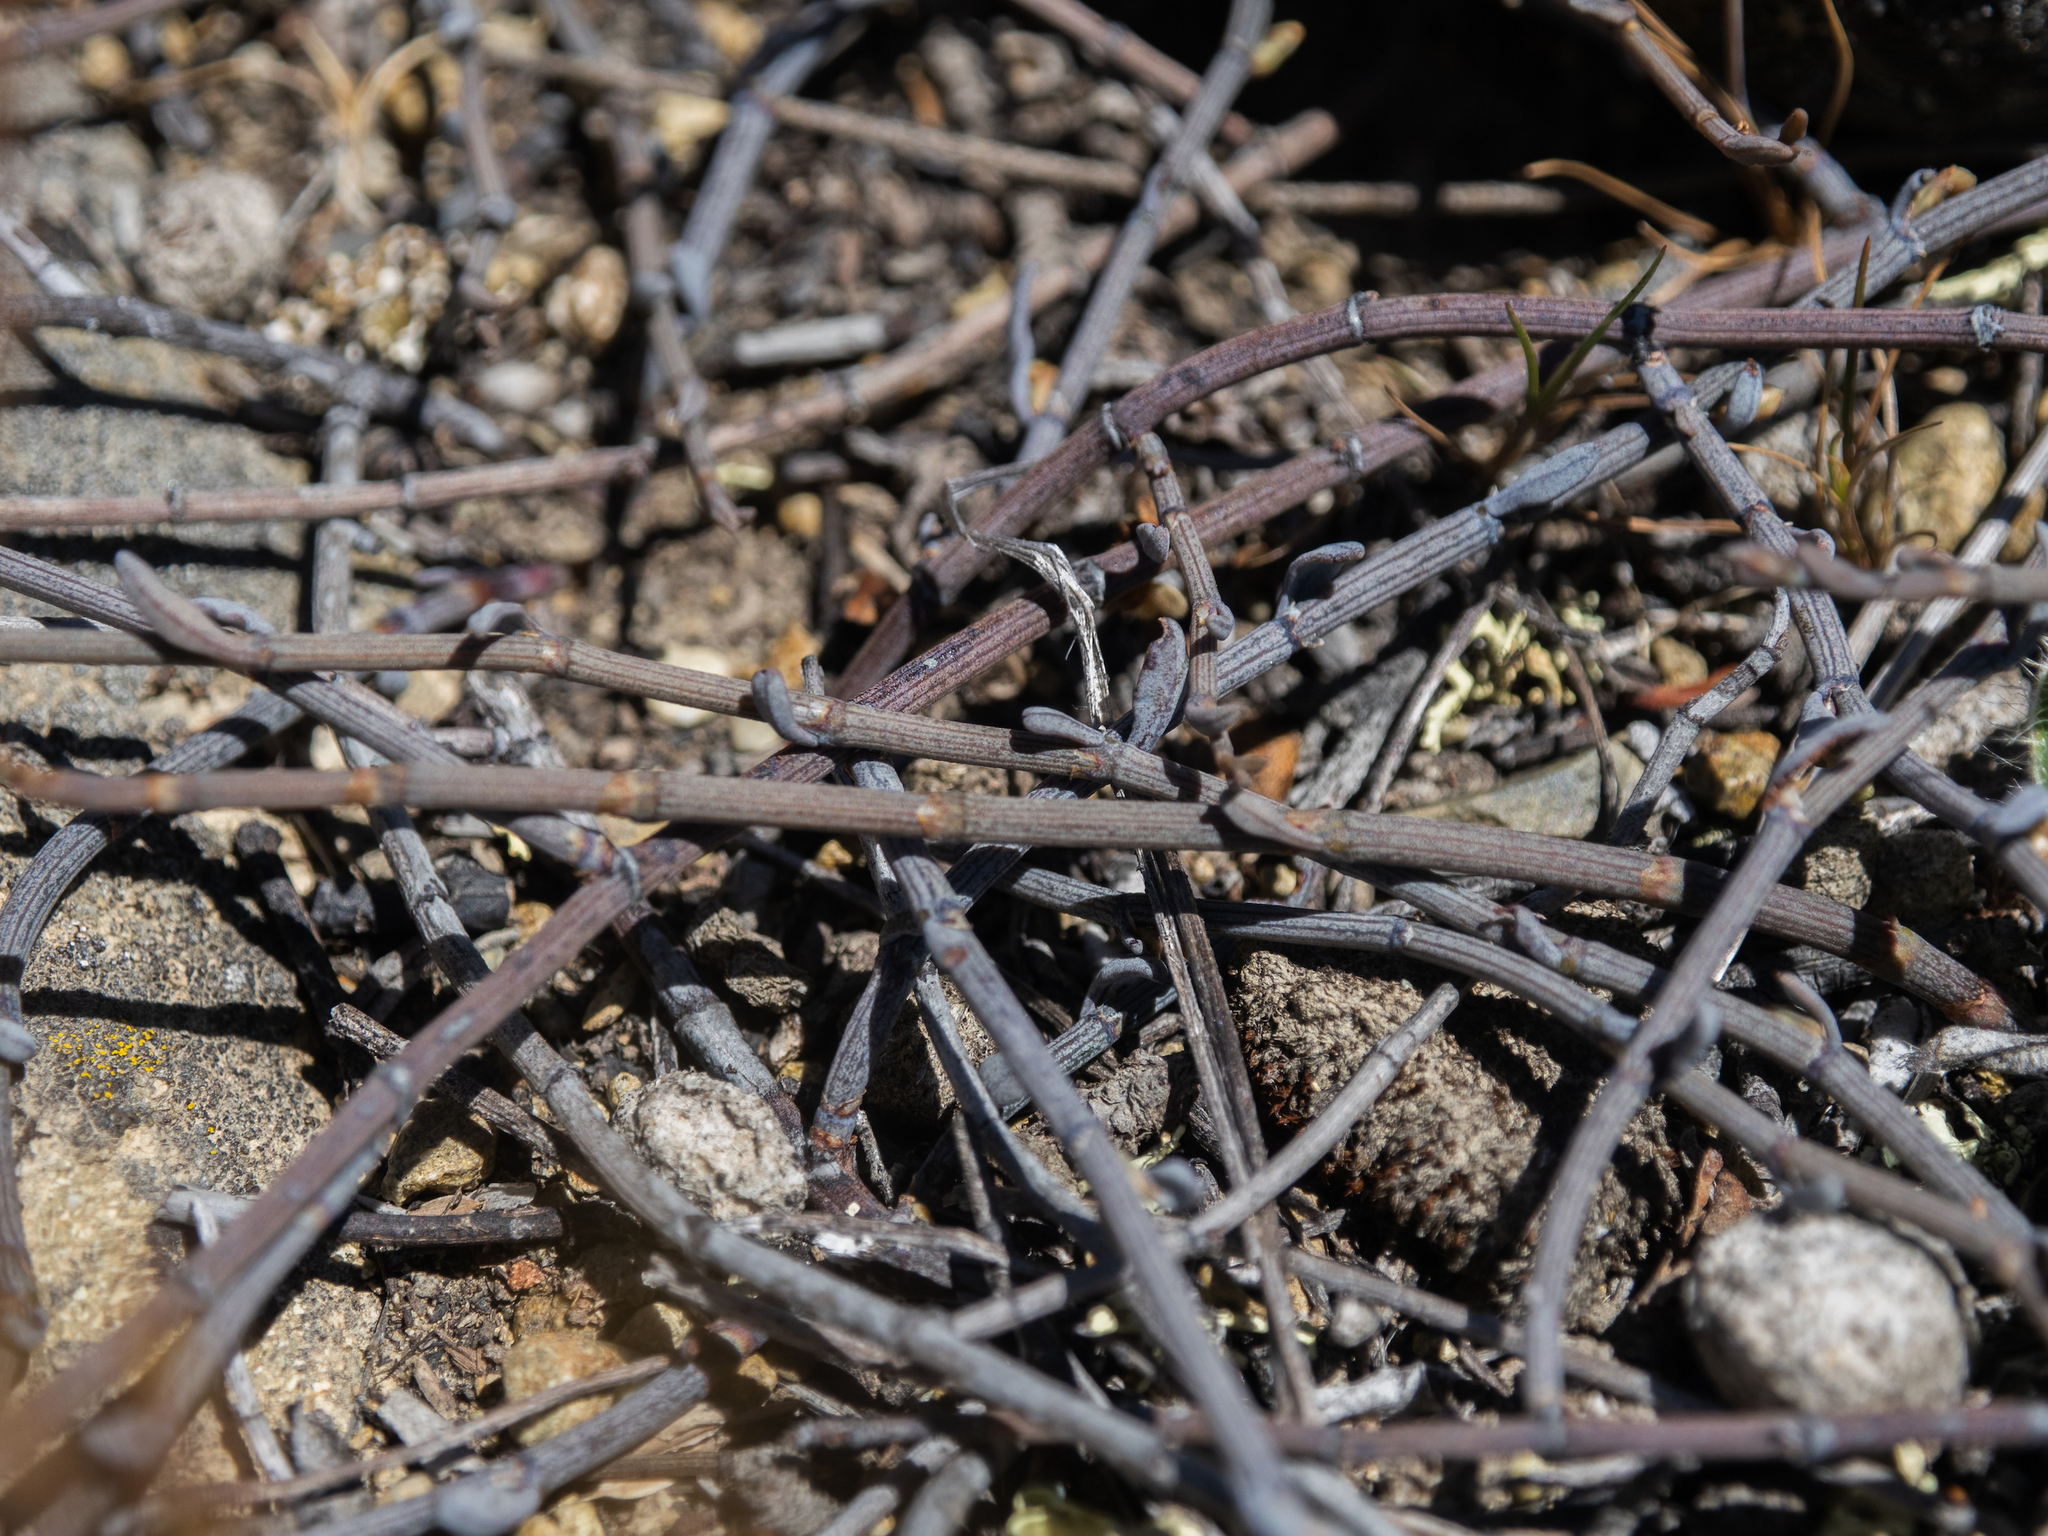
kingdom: Plantae
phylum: Tracheophyta
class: Magnoliopsida
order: Caryophyllales
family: Polygonaceae
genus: Muehlenbeckia
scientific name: Muehlenbeckia ephedroides
